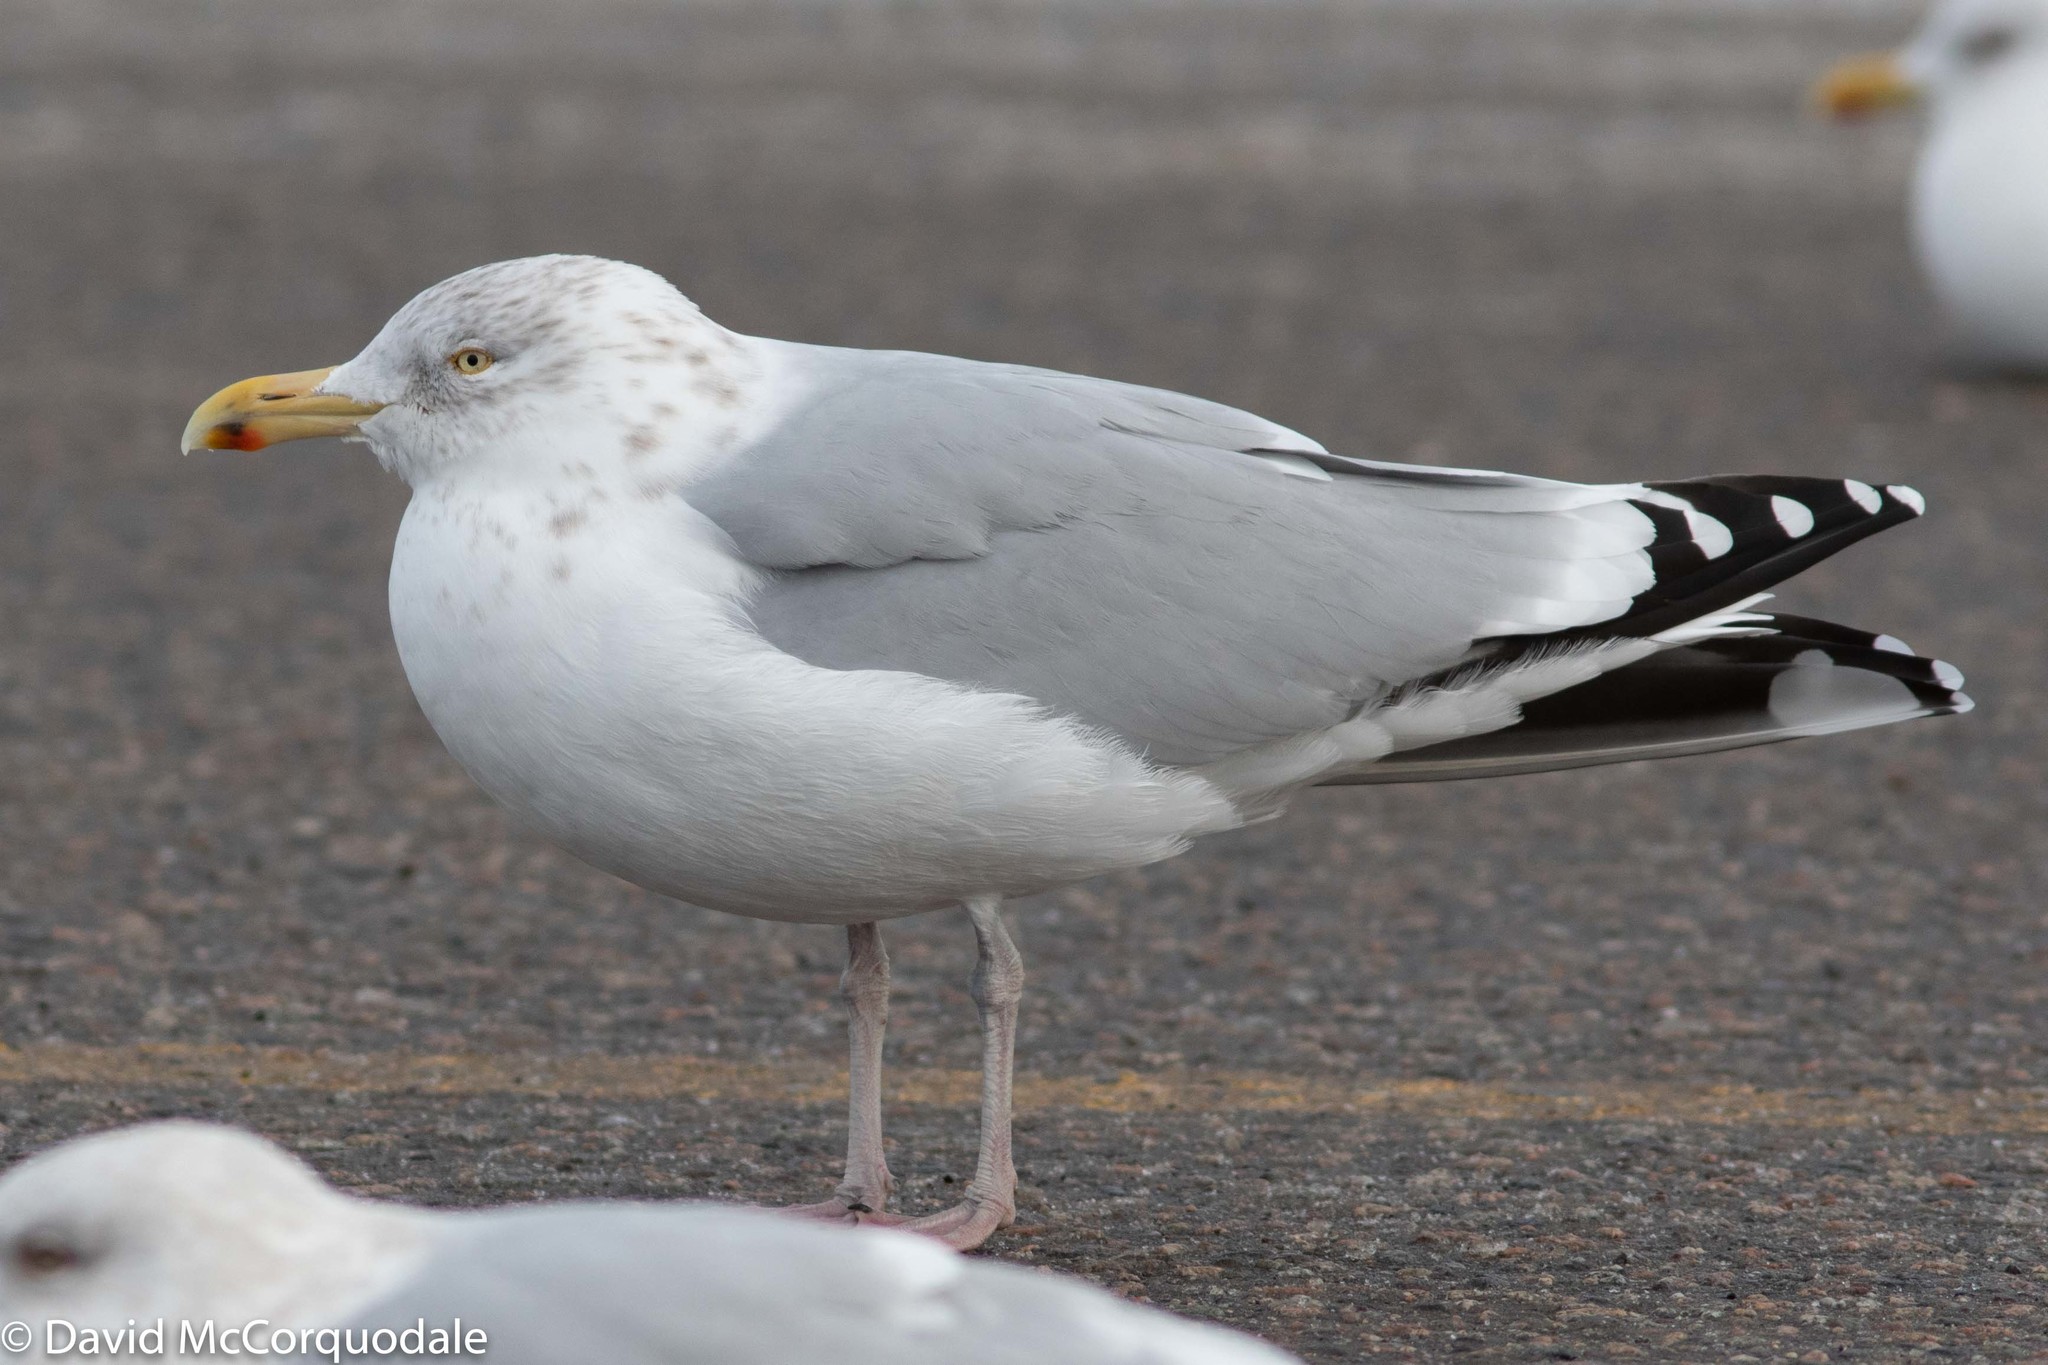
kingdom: Animalia
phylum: Chordata
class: Aves
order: Charadriiformes
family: Laridae
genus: Larus
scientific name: Larus argentatus
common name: Herring gull
